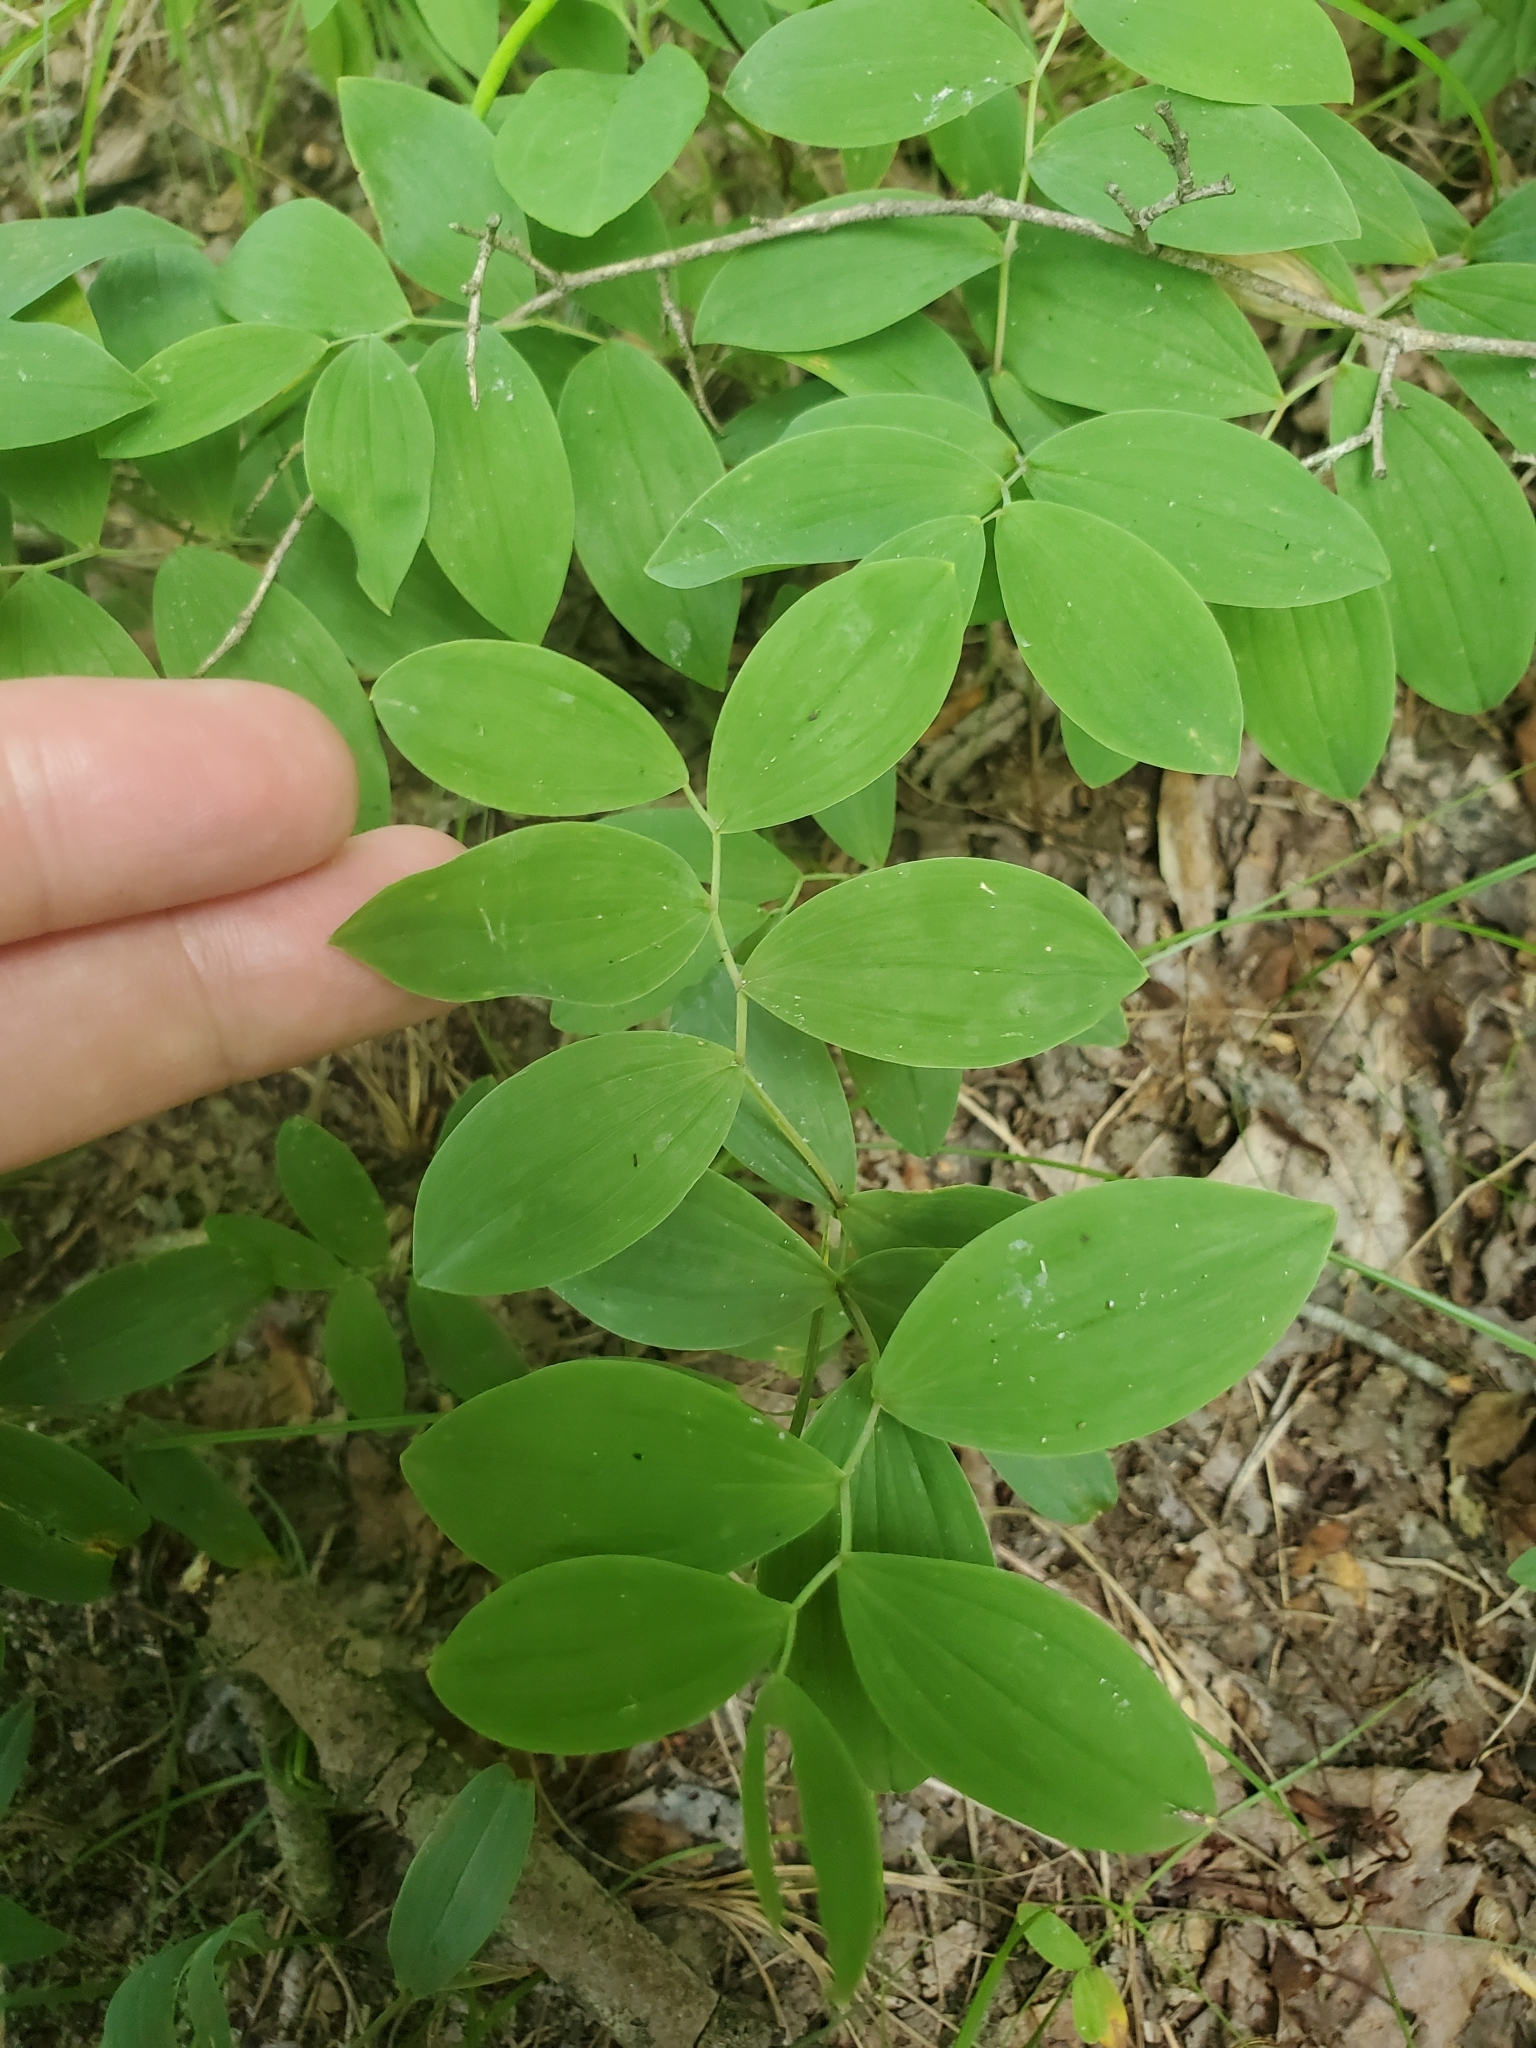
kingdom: Plantae
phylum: Tracheophyta
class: Liliopsida
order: Liliales
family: Colchicaceae
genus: Uvularia
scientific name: Uvularia sessilifolia
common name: Straw-lily
